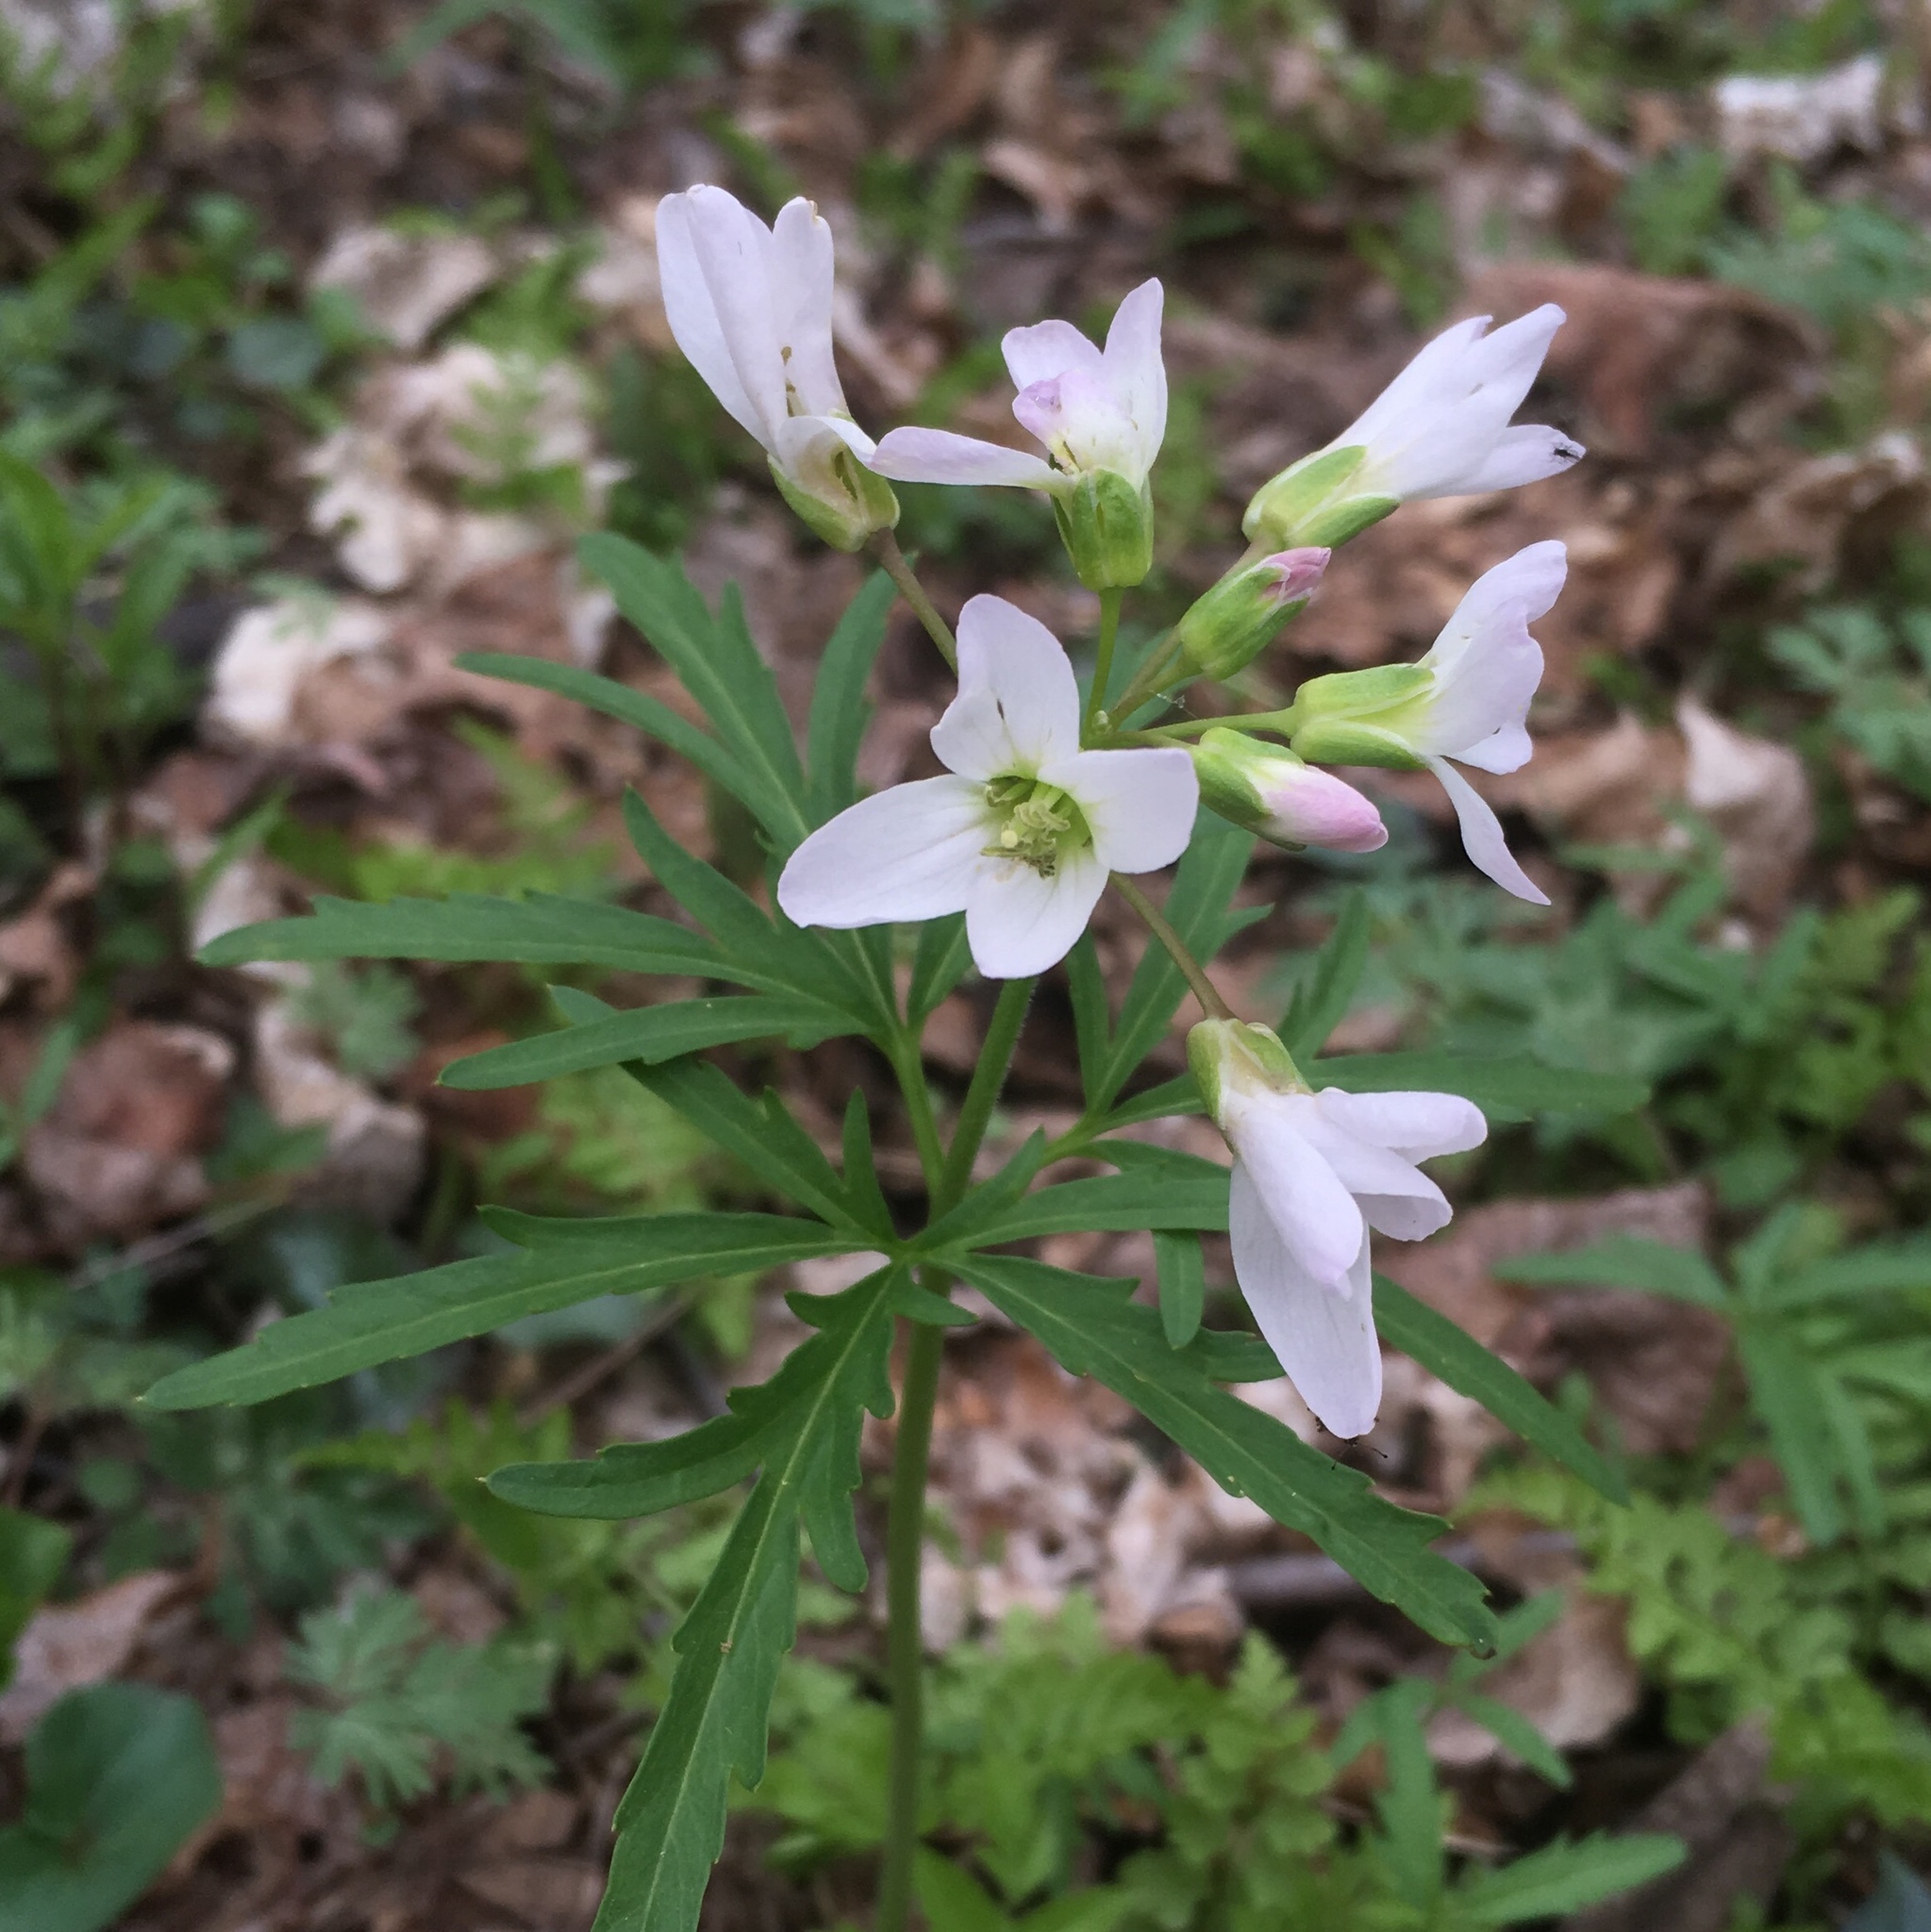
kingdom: Plantae
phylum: Tracheophyta
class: Magnoliopsida
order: Brassicales
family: Brassicaceae
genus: Cardamine
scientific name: Cardamine concatenata
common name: Cut-leaf toothcup
